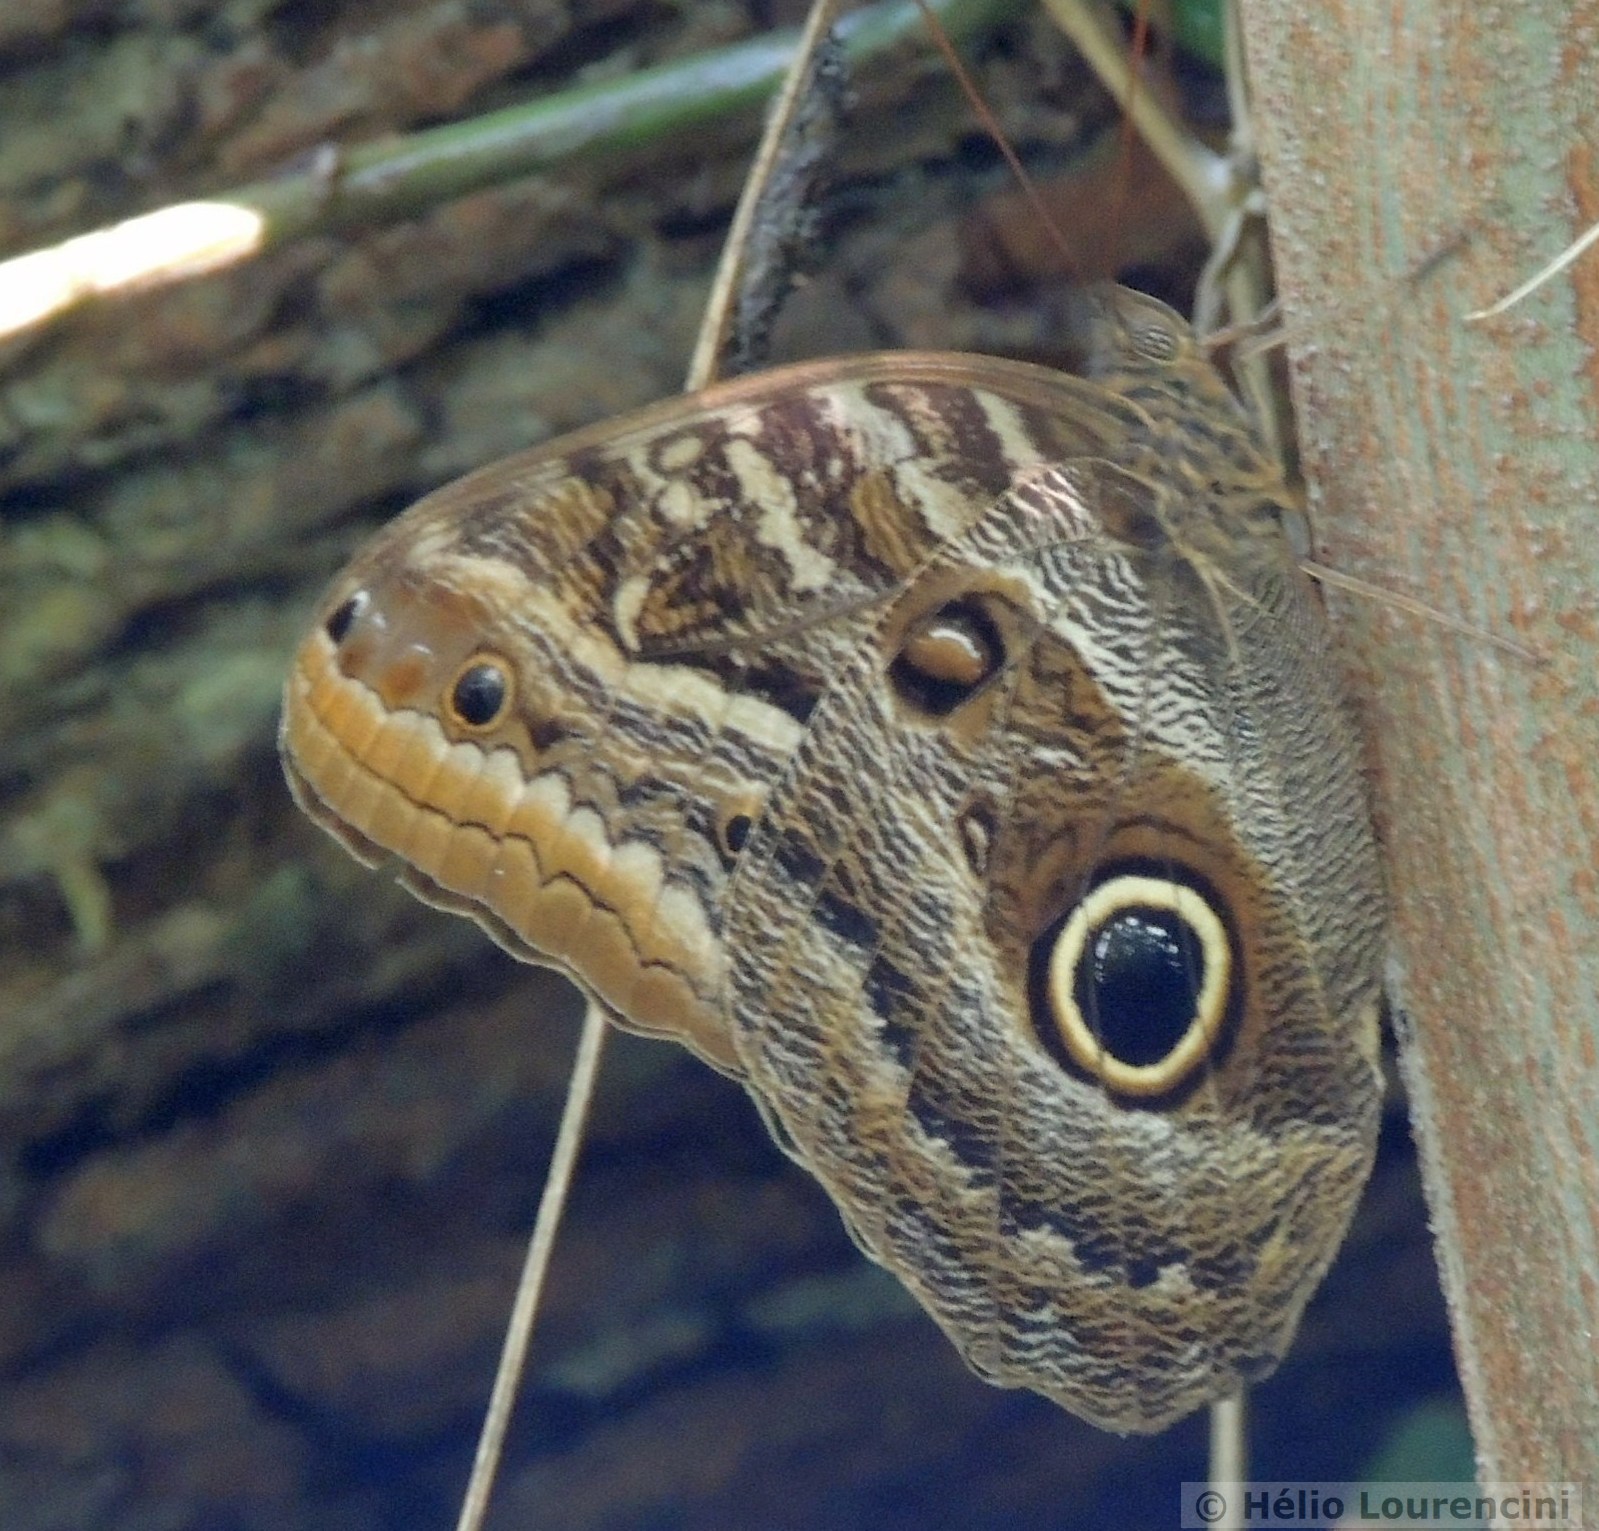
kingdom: Animalia
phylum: Arthropoda
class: Insecta
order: Lepidoptera
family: Nymphalidae
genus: Caligo
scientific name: Caligo illioneus
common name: Dusky owl-butterfly
